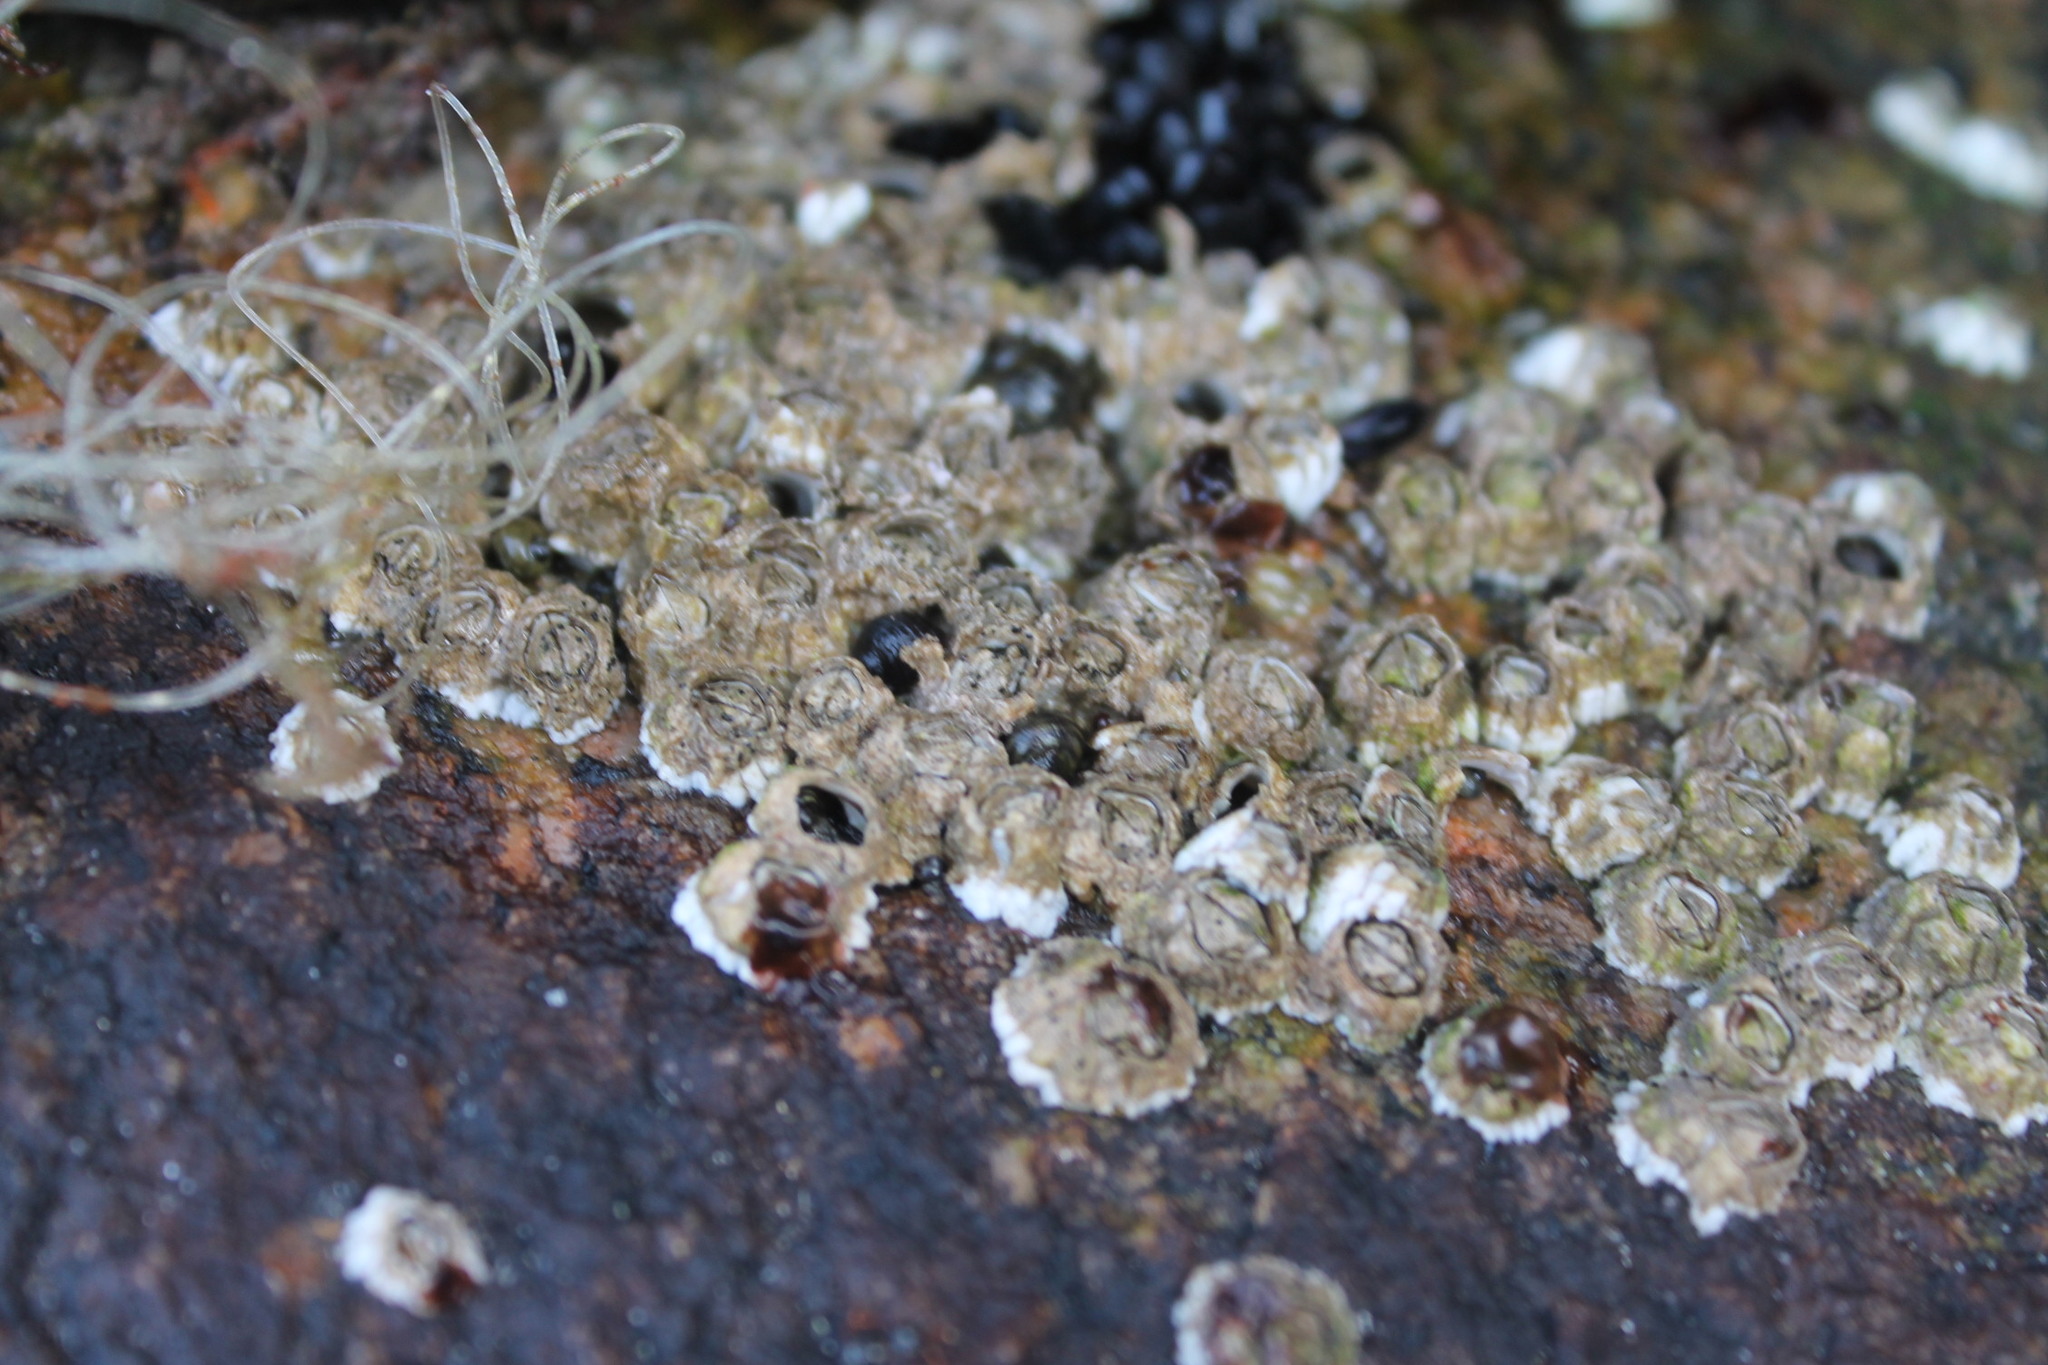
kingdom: Animalia
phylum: Arthropoda
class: Maxillopoda
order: Sessilia
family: Archaeobalanidae
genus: Semibalanus
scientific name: Semibalanus balanoides
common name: Acorn barnacle
